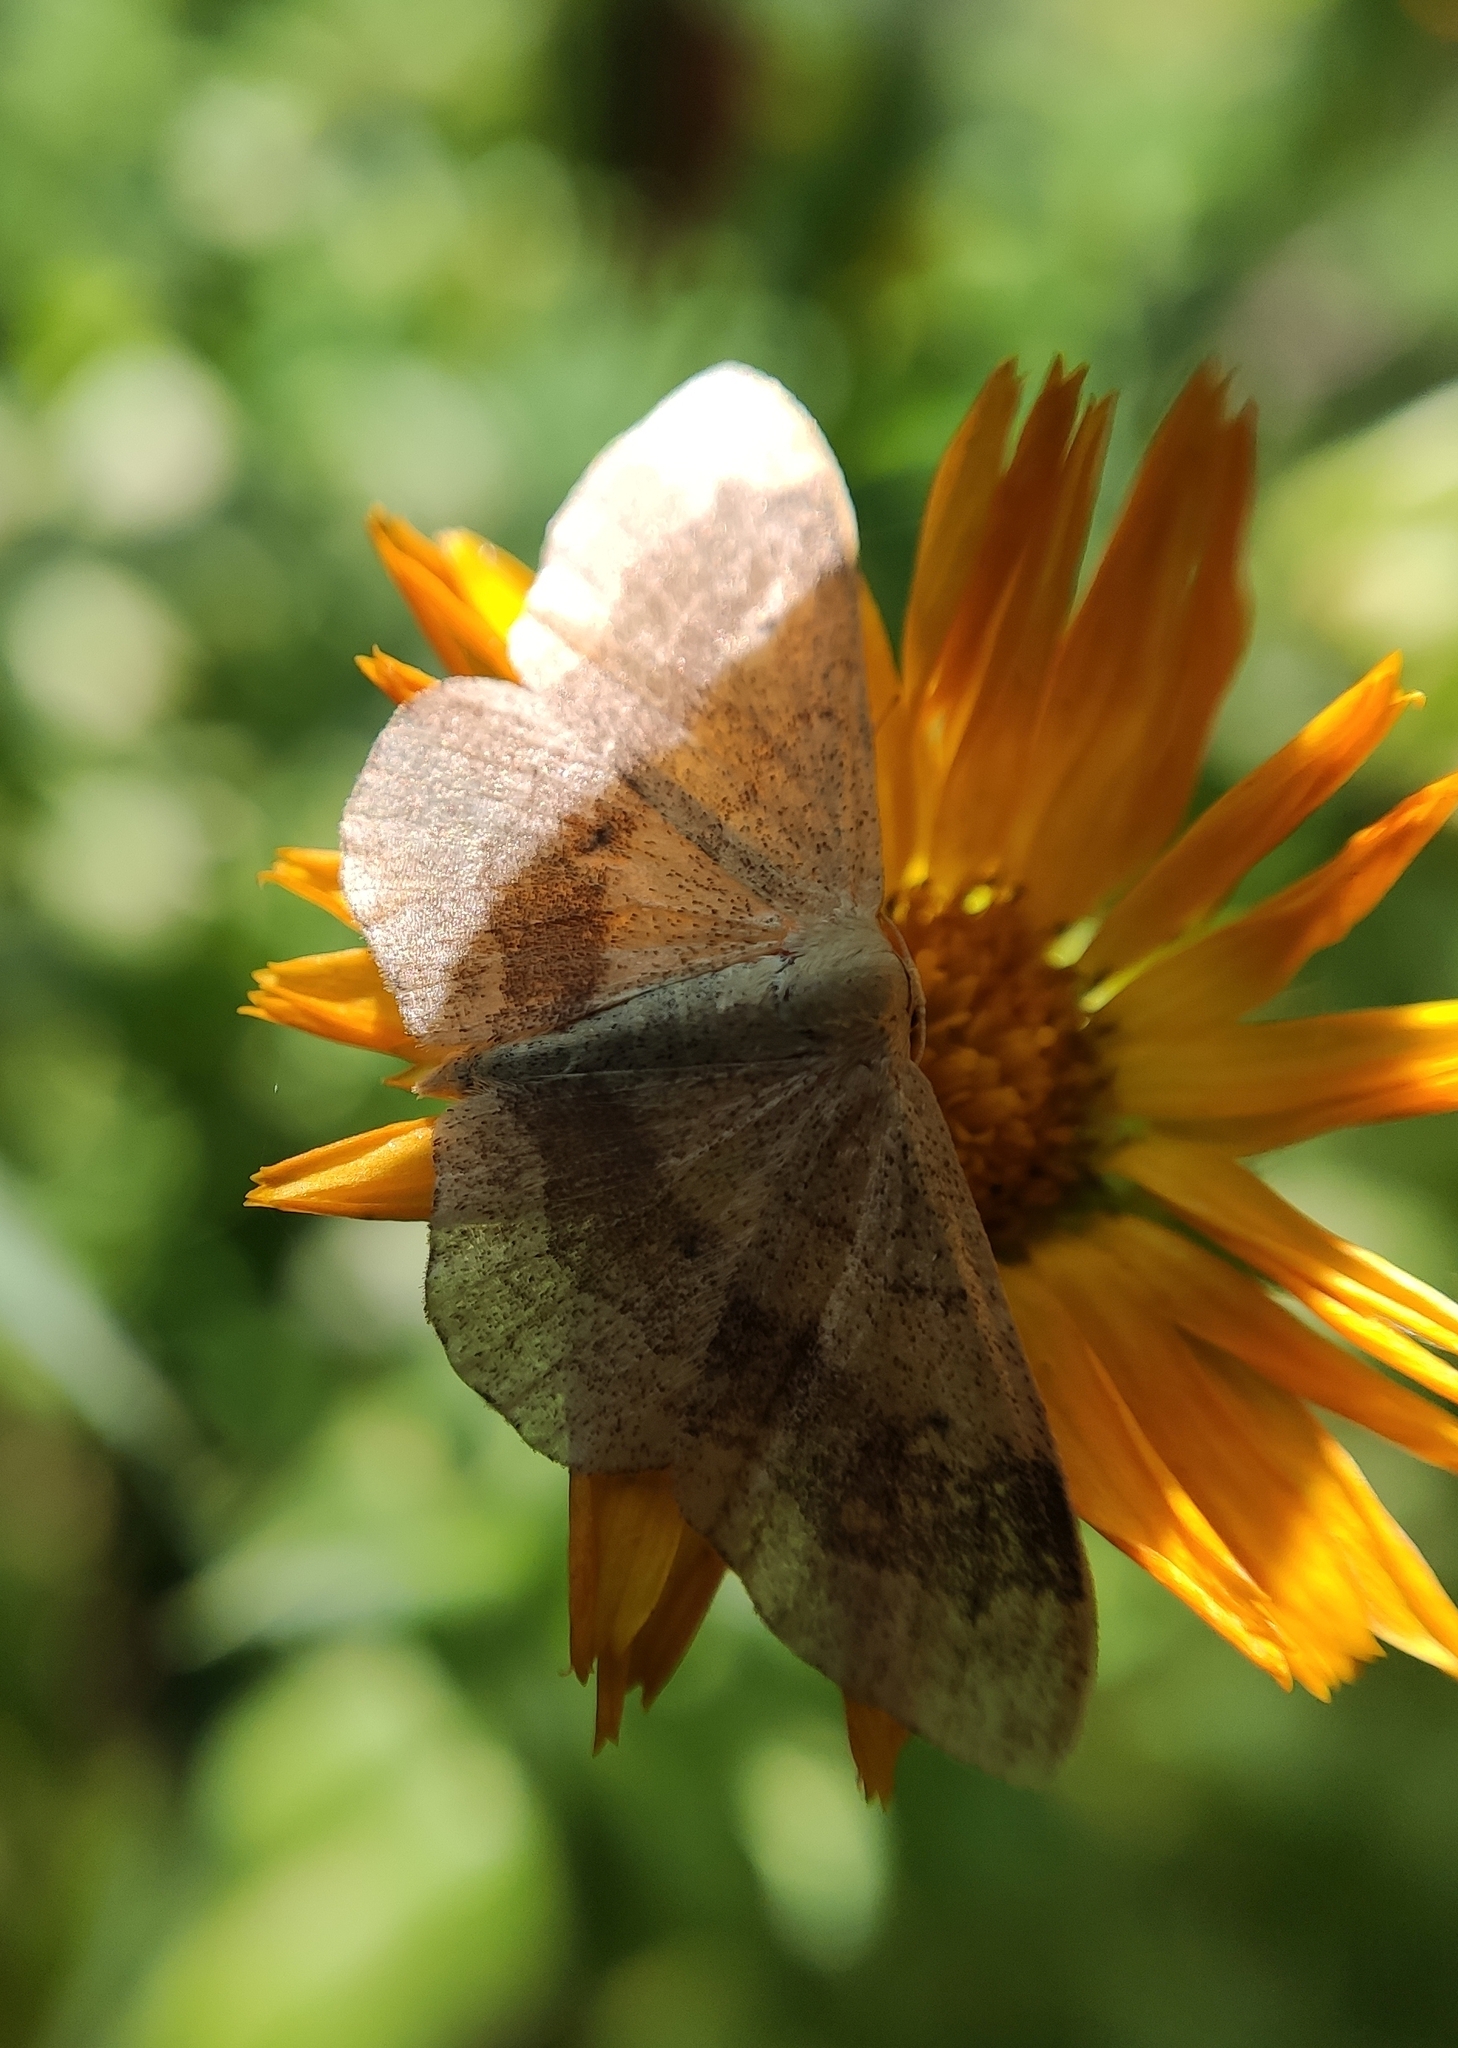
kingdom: Animalia
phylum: Arthropoda
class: Insecta
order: Lepidoptera
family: Geometridae
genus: Idaea
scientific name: Idaea aversata
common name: Riband wave
